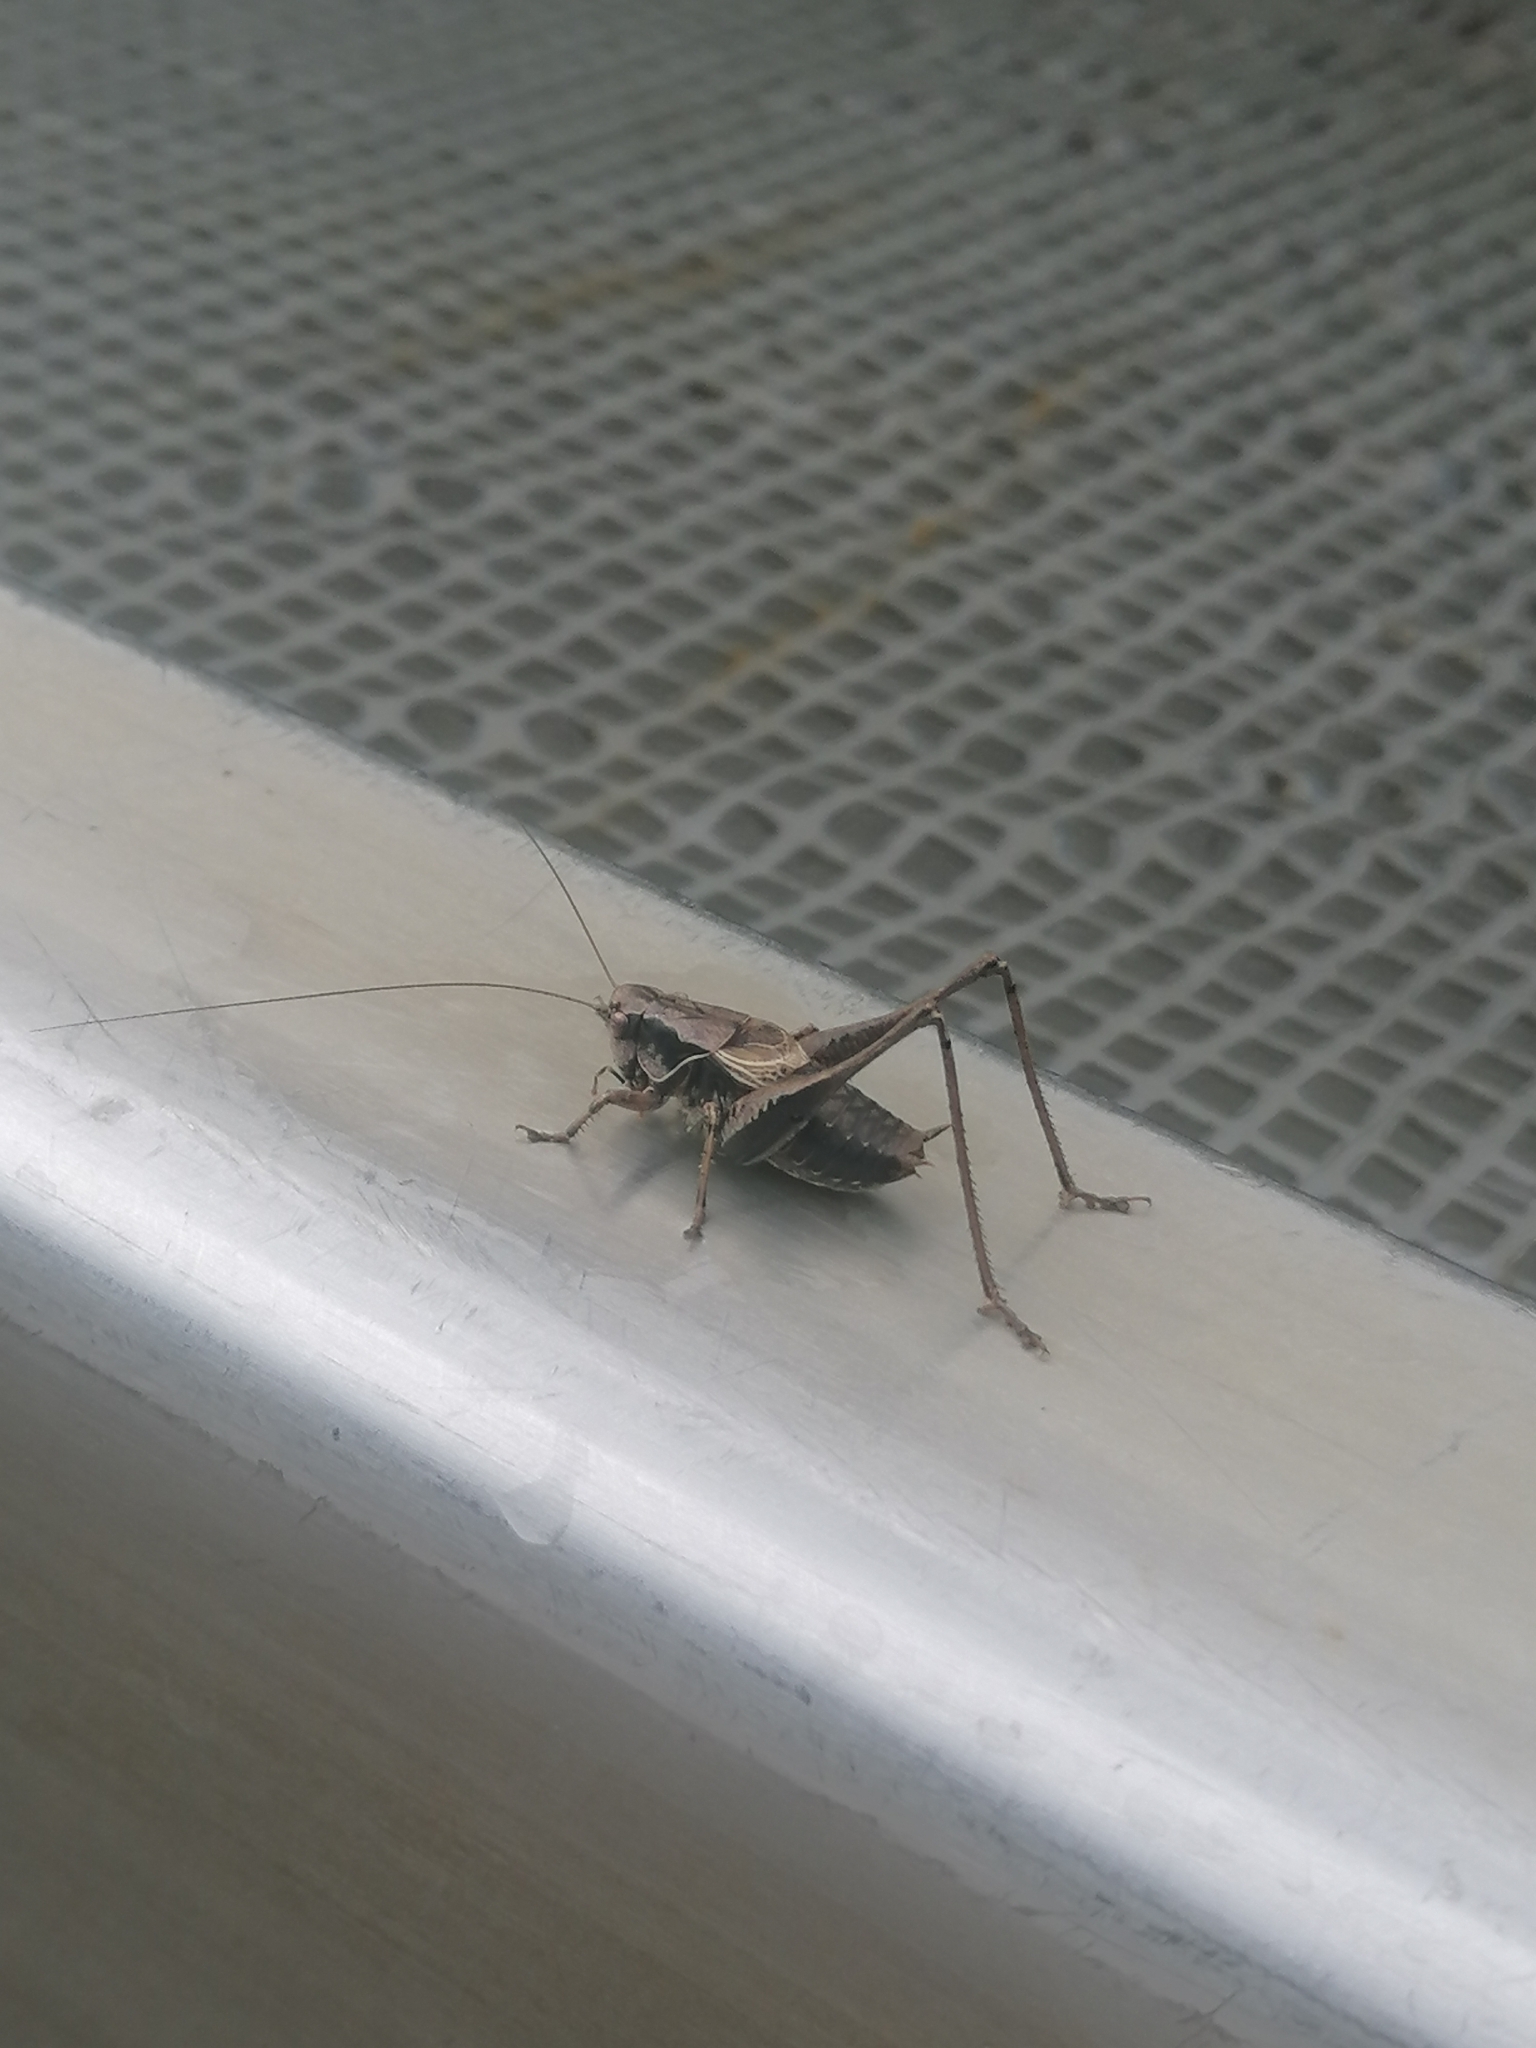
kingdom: Animalia
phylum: Arthropoda
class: Insecta
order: Orthoptera
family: Tettigoniidae
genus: Pholidoptera
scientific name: Pholidoptera griseoaptera
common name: Dark bush-cricket
